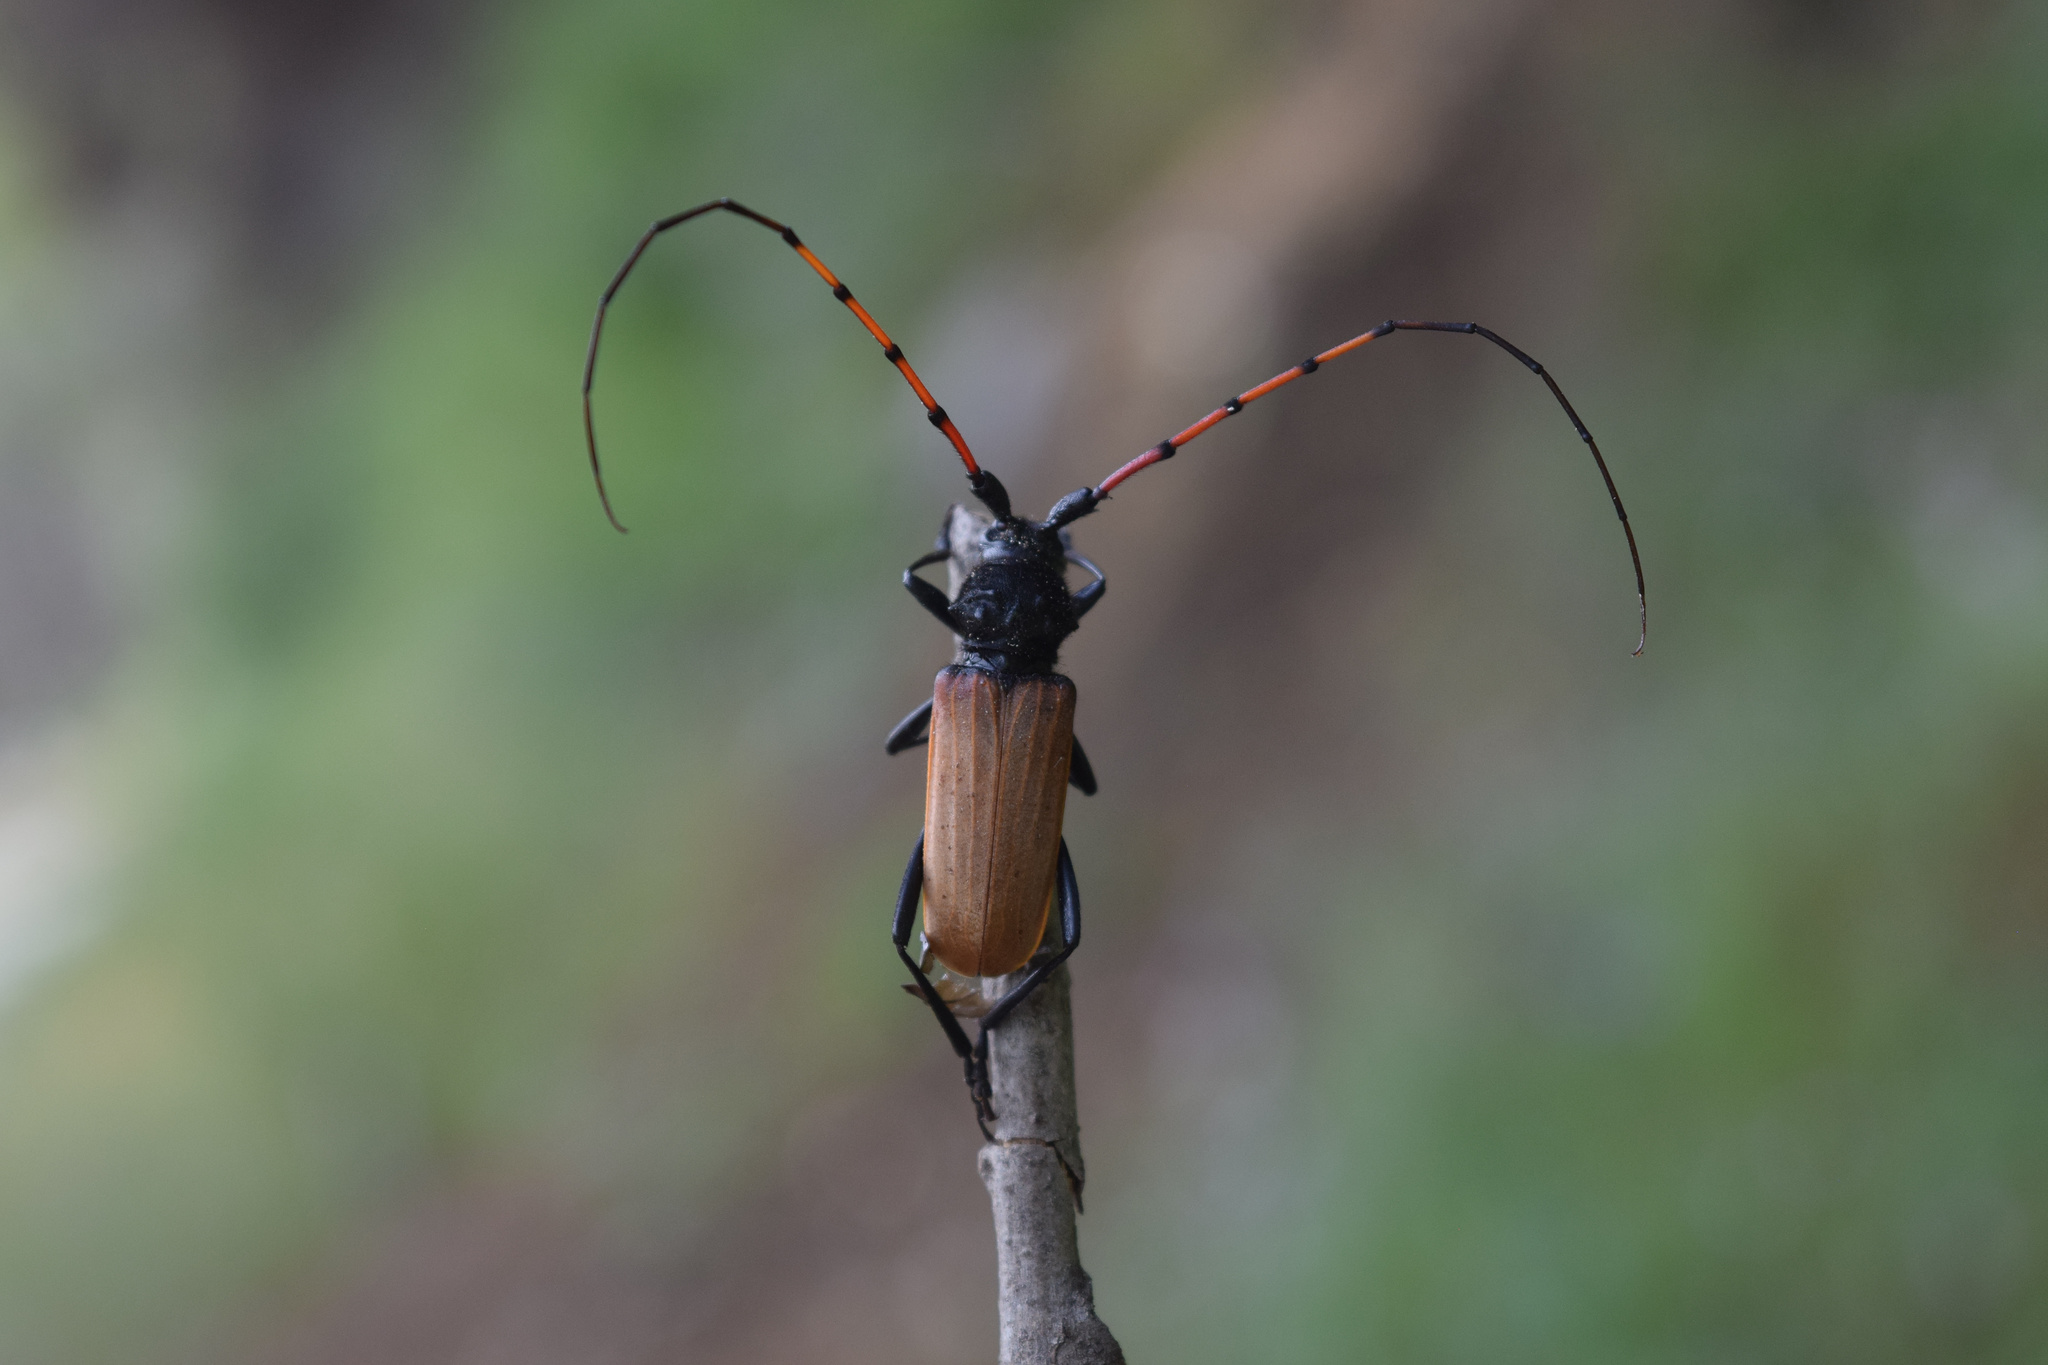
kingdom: Animalia
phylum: Arthropoda
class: Insecta
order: Coleoptera
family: Cerambycidae
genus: Tragidion
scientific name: Tragidion gracilipes
